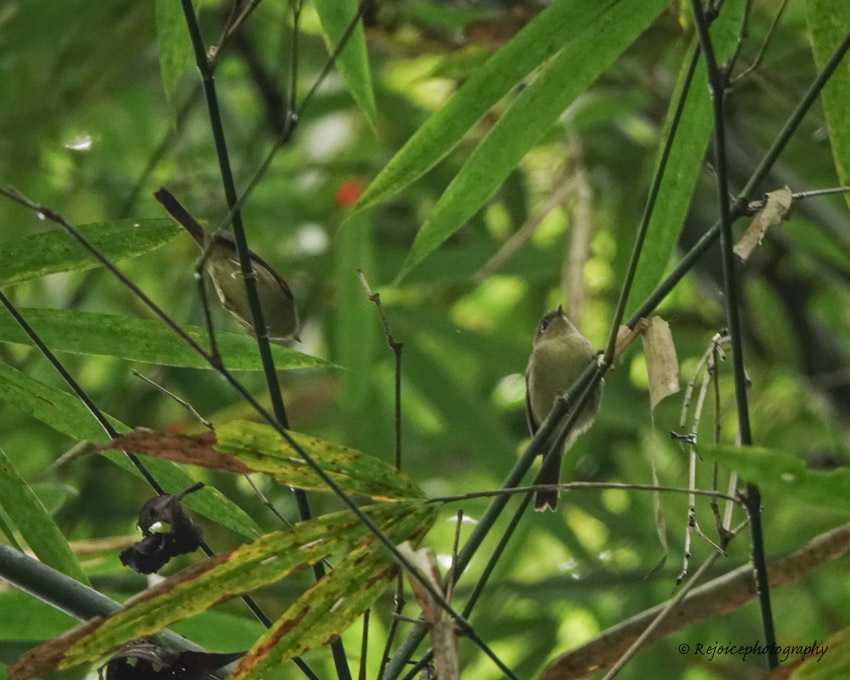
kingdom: Animalia
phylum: Chordata
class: Aves
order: Passeriformes
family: Pellorneidae
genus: Alcippe
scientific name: Alcippe nipalensis
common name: Nepal fulvetta
